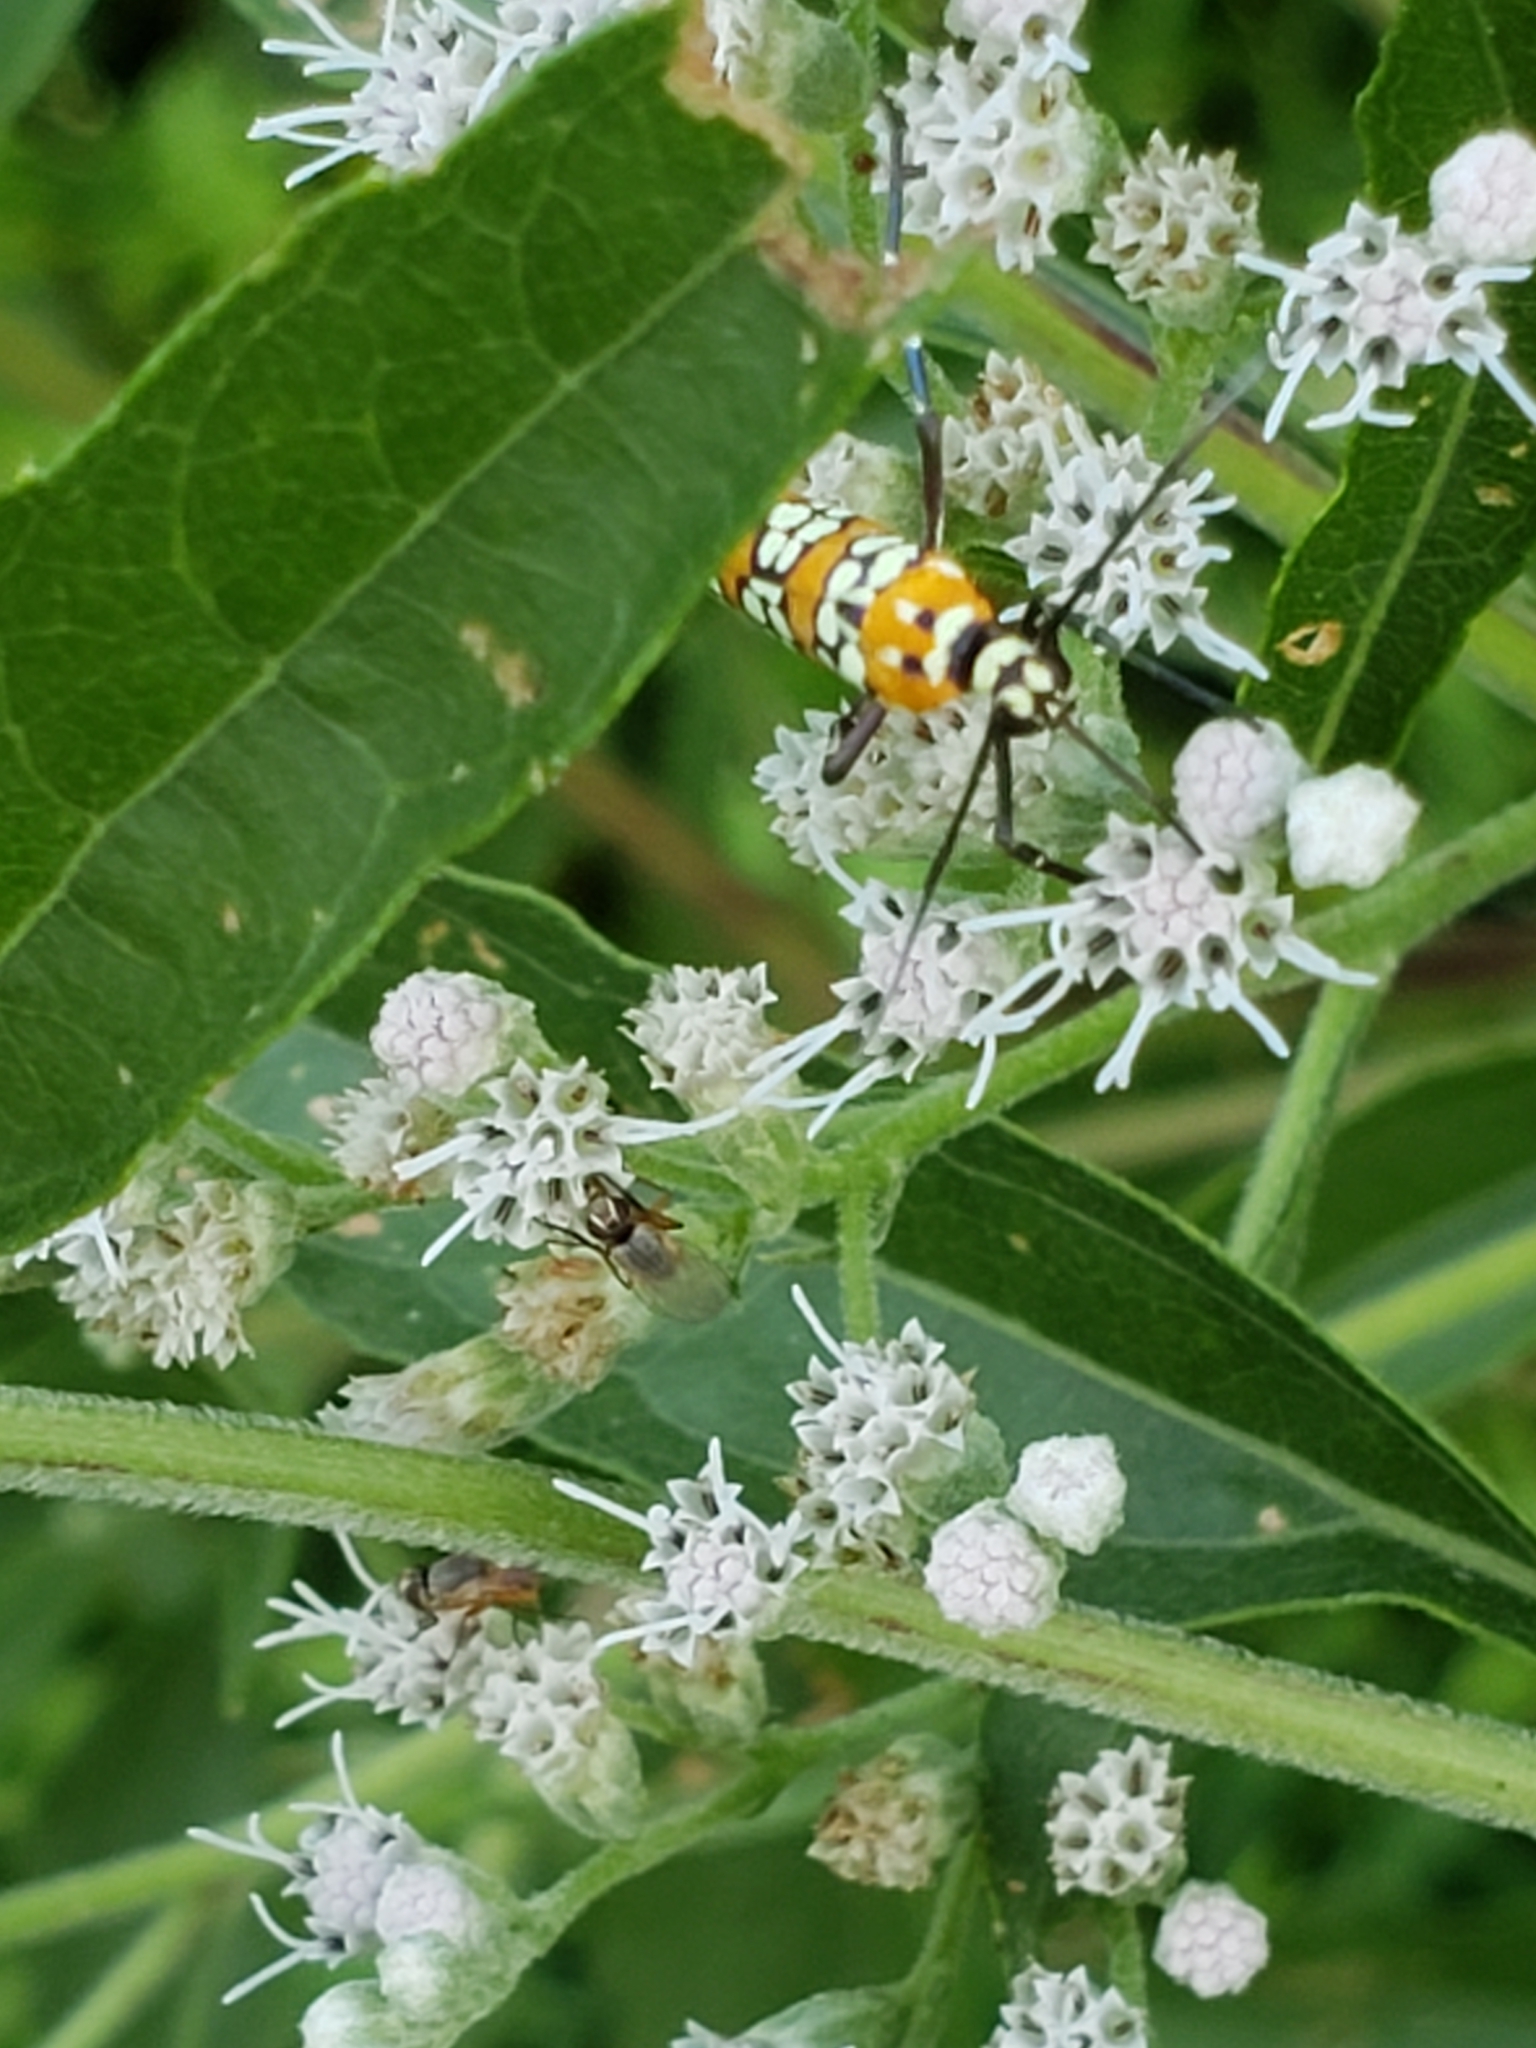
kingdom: Animalia
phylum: Arthropoda
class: Insecta
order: Lepidoptera
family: Attevidae
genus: Atteva
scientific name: Atteva punctella
